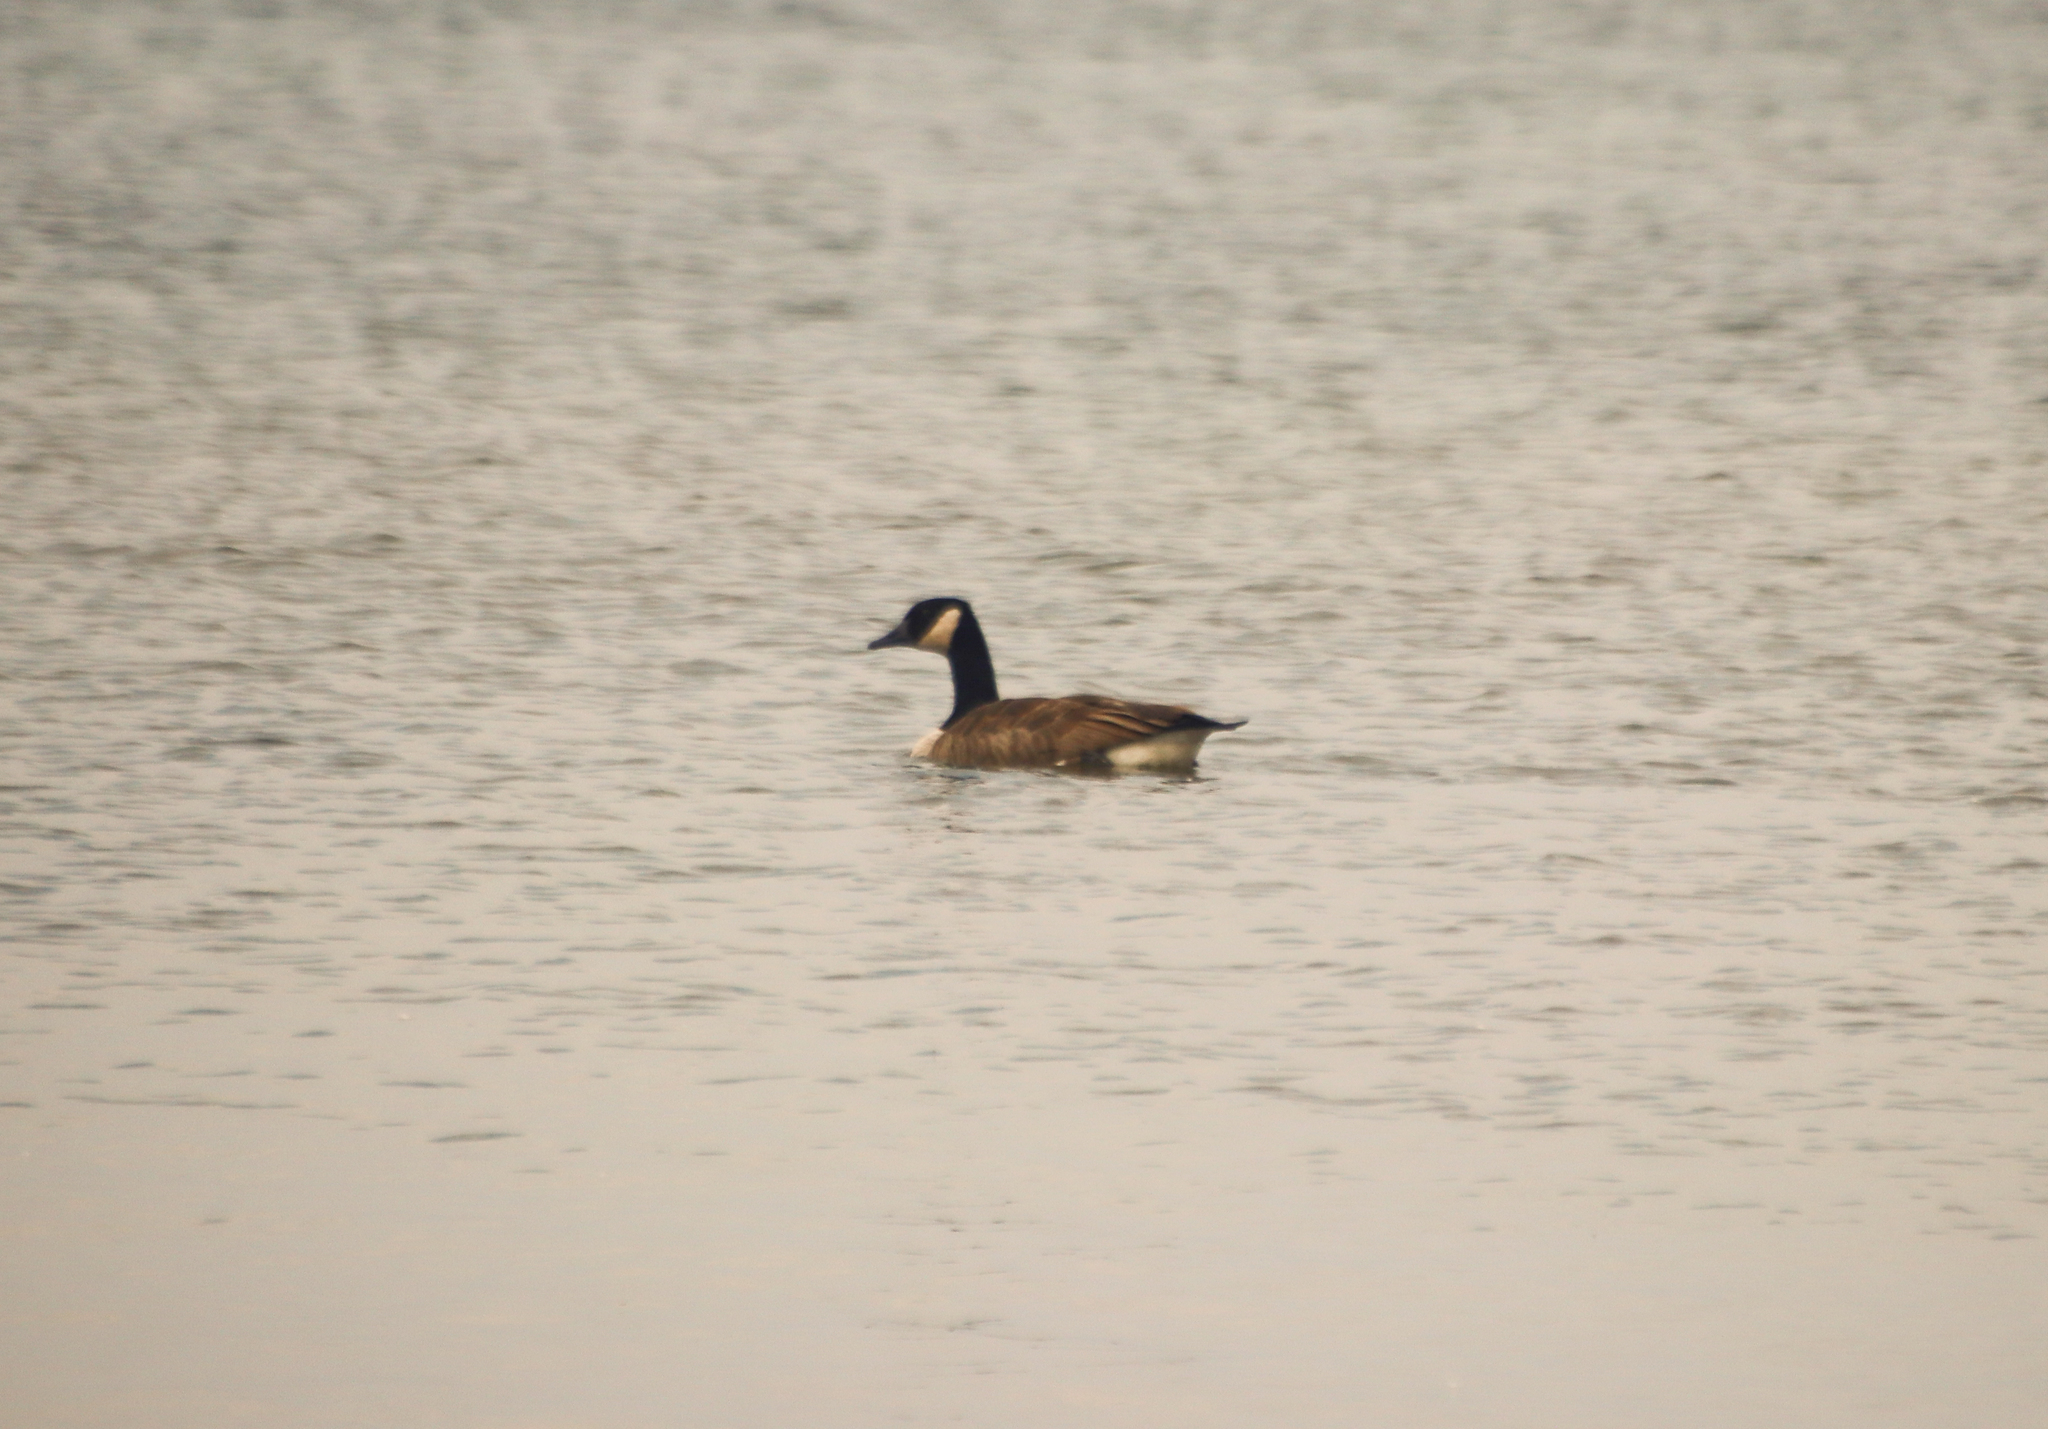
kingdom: Animalia
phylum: Chordata
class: Aves
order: Anseriformes
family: Anatidae
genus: Branta
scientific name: Branta canadensis
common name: Canada goose
